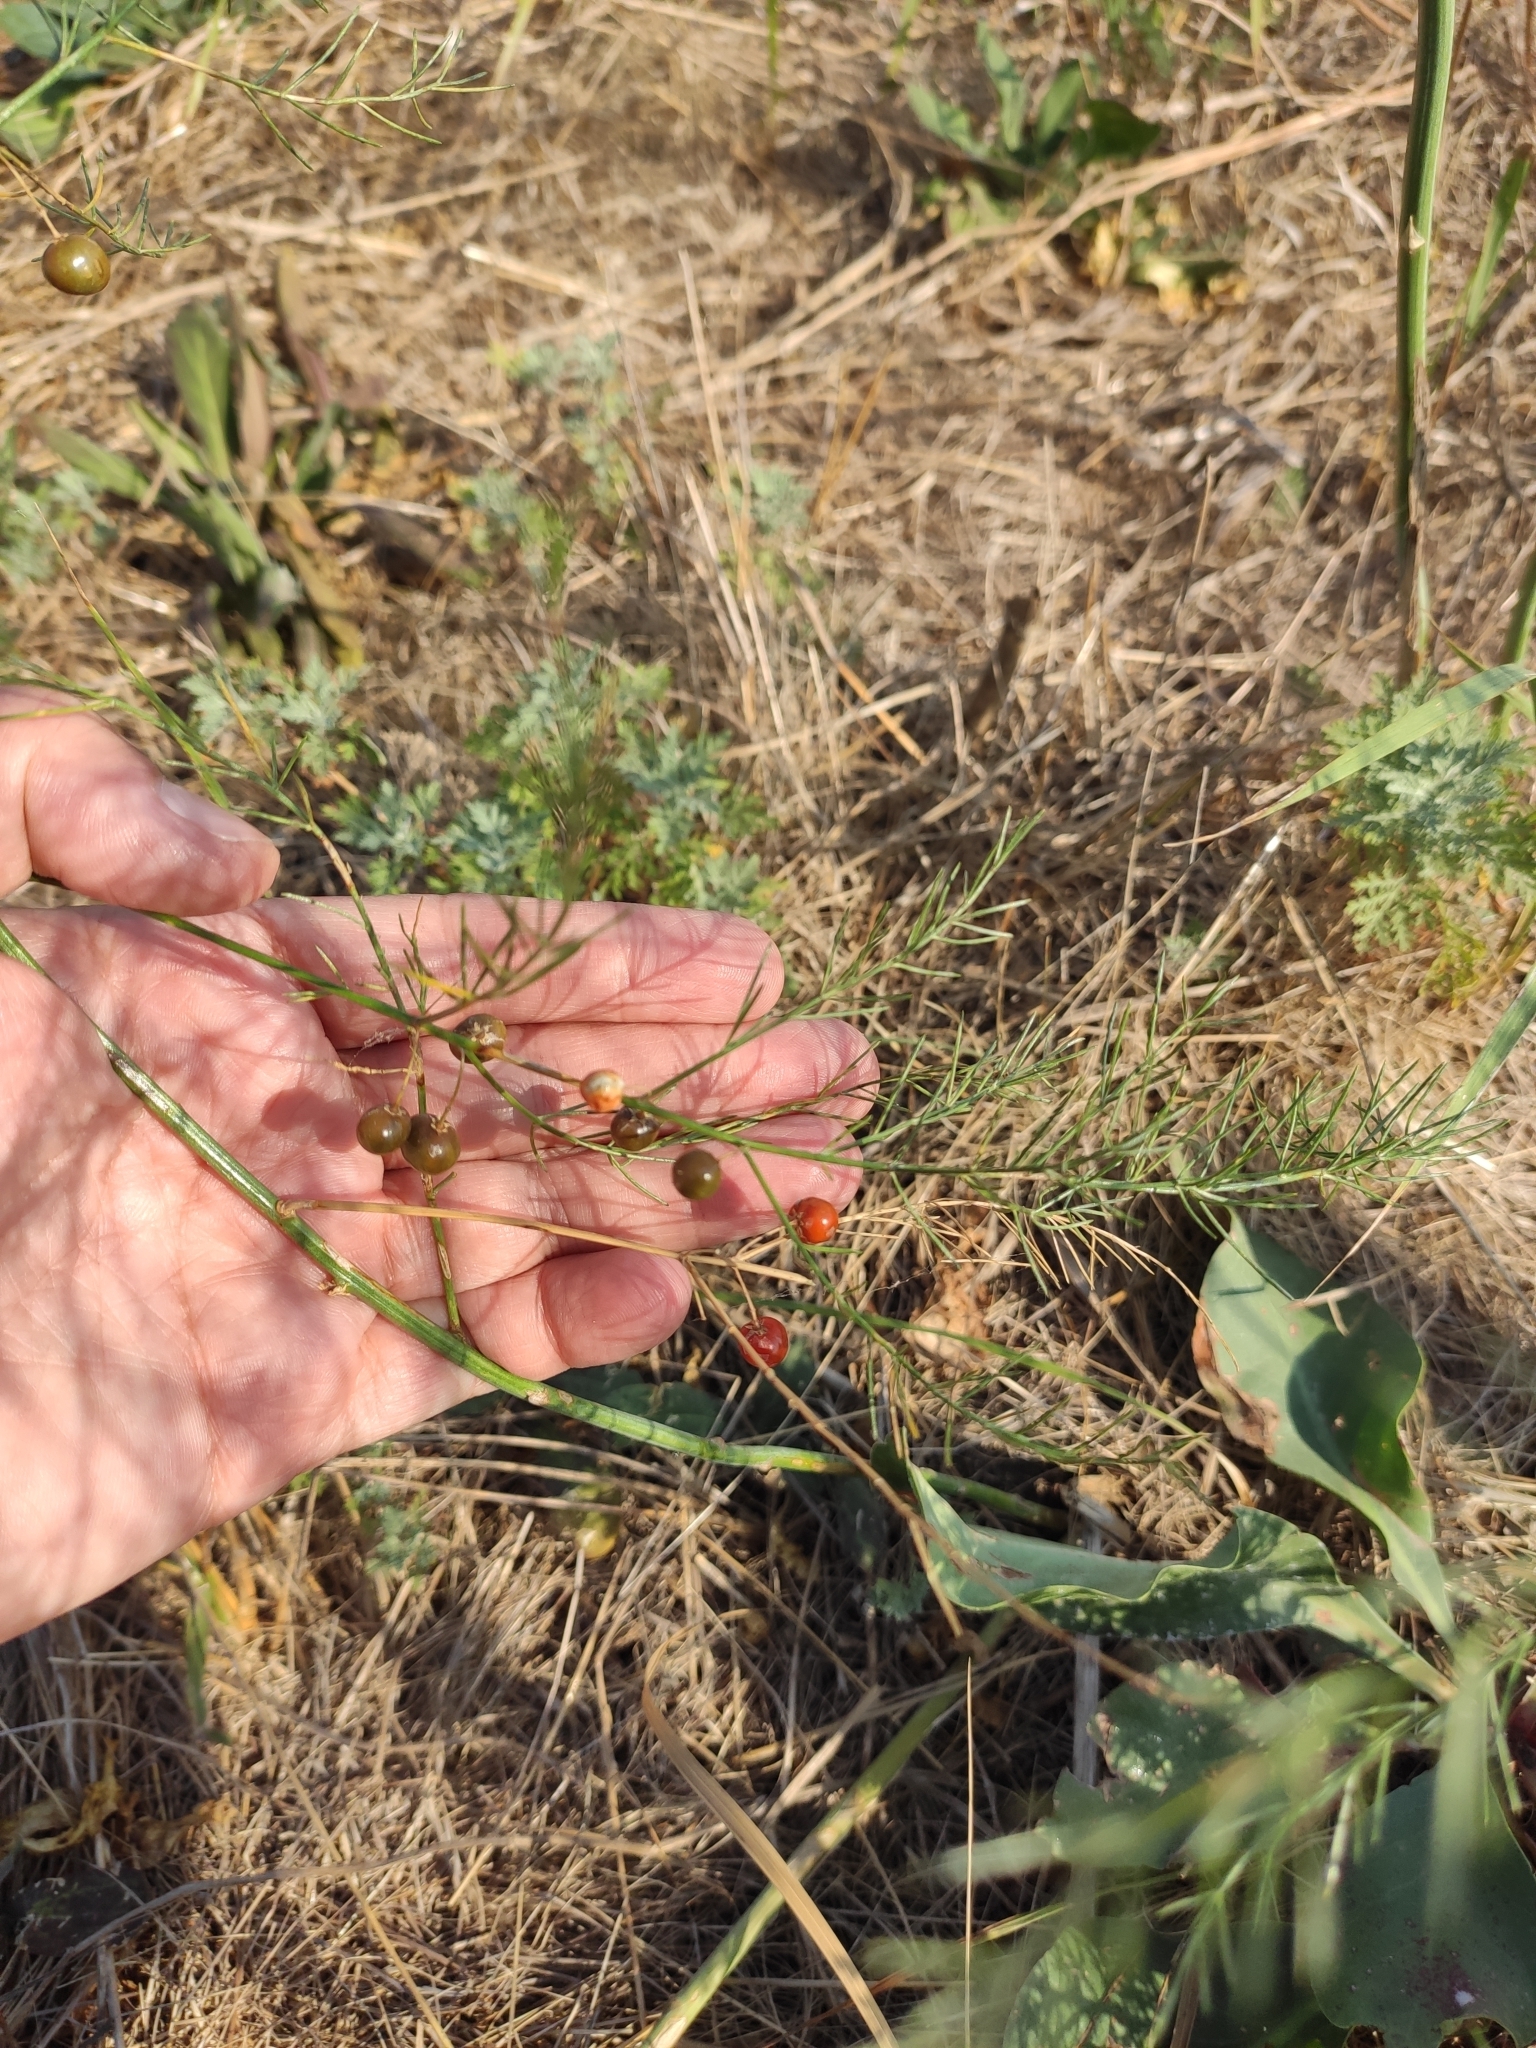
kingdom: Plantae
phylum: Tracheophyta
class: Liliopsida
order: Asparagales
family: Asparagaceae
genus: Asparagus
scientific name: Asparagus officinalis
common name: Garden asparagus
